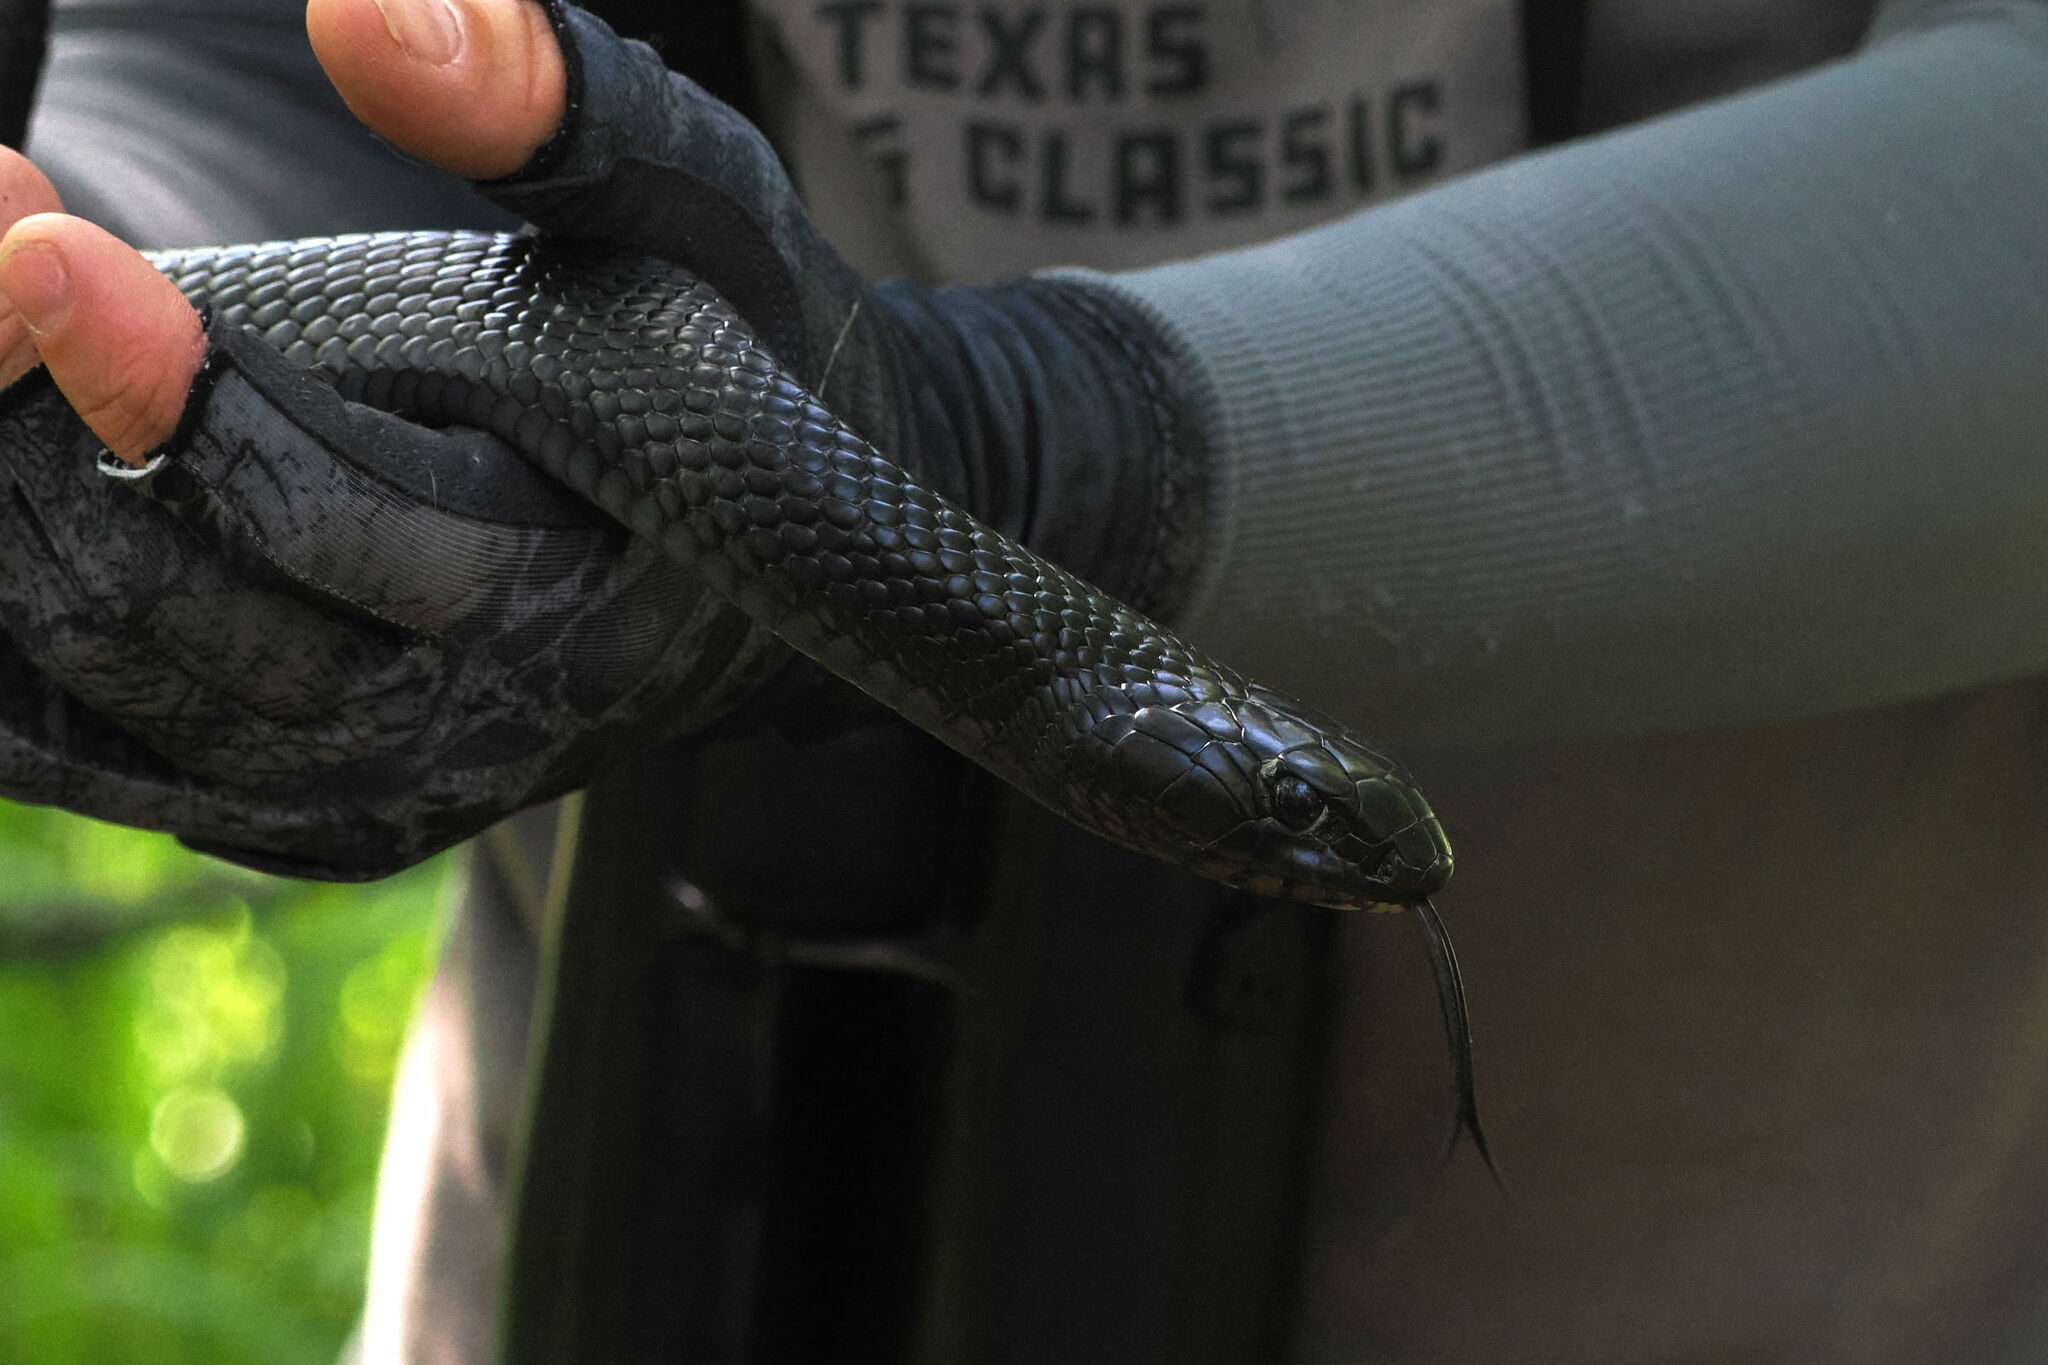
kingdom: Animalia
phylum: Chordata
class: Squamata
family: Colubridae
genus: Drymarchon
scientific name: Drymarchon melanurus
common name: Central american indigo snake
